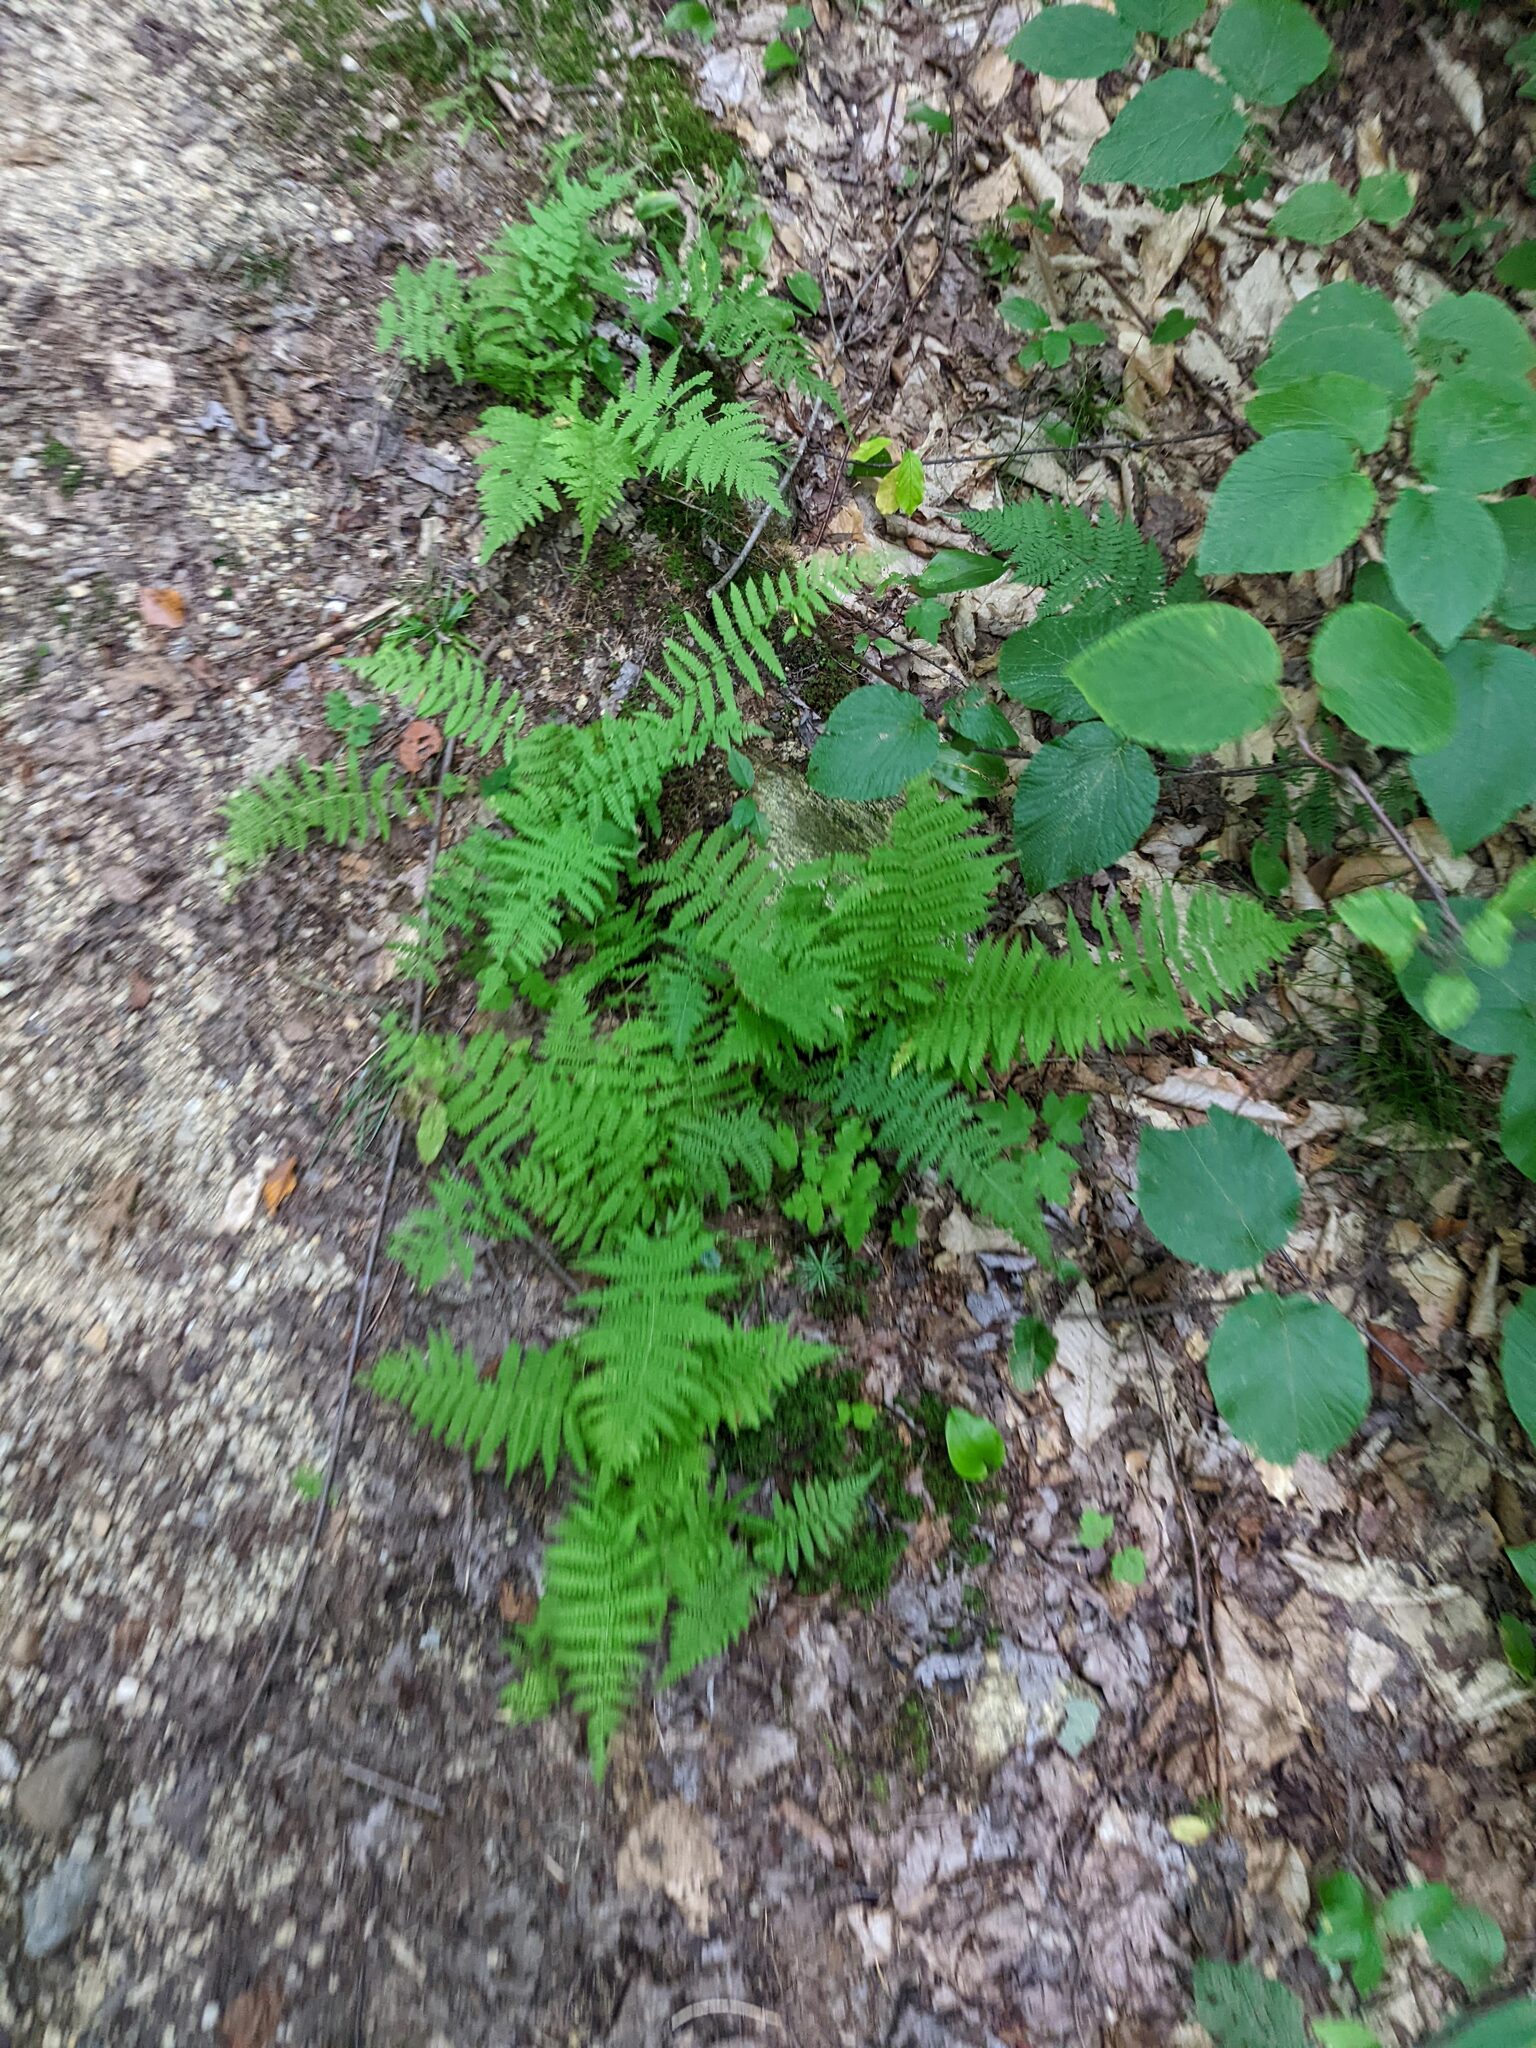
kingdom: Plantae
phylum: Tracheophyta
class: Polypodiopsida
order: Polypodiales
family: Thelypteridaceae
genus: Amauropelta
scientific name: Amauropelta noveboracensis
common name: New york fern
